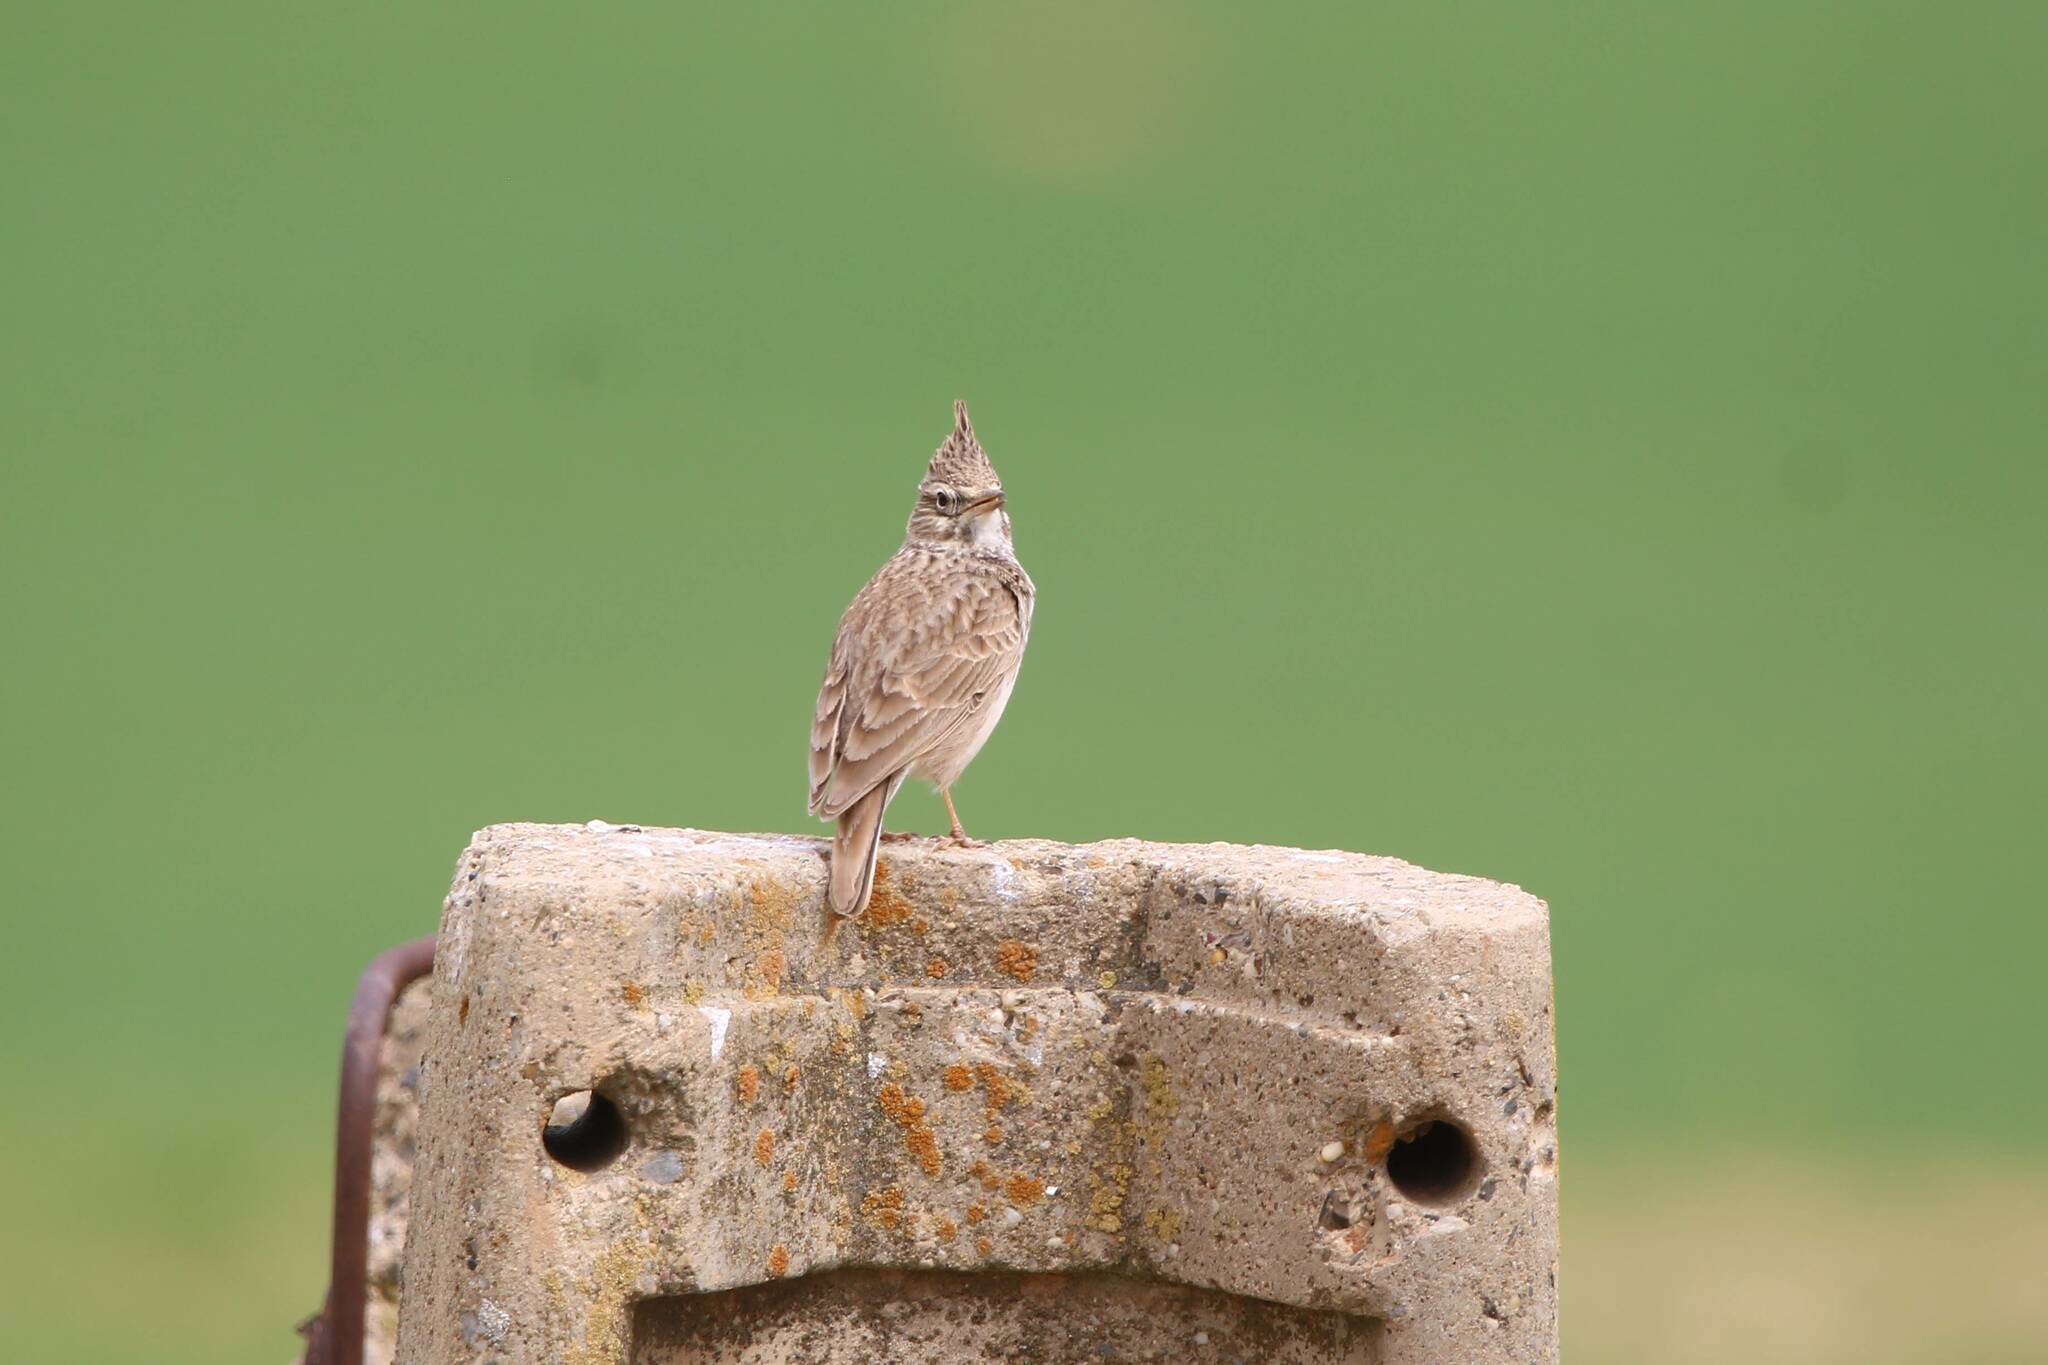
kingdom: Animalia
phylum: Chordata
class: Aves
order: Passeriformes
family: Alaudidae
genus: Galerida
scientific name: Galerida theklae
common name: Thekla lark
